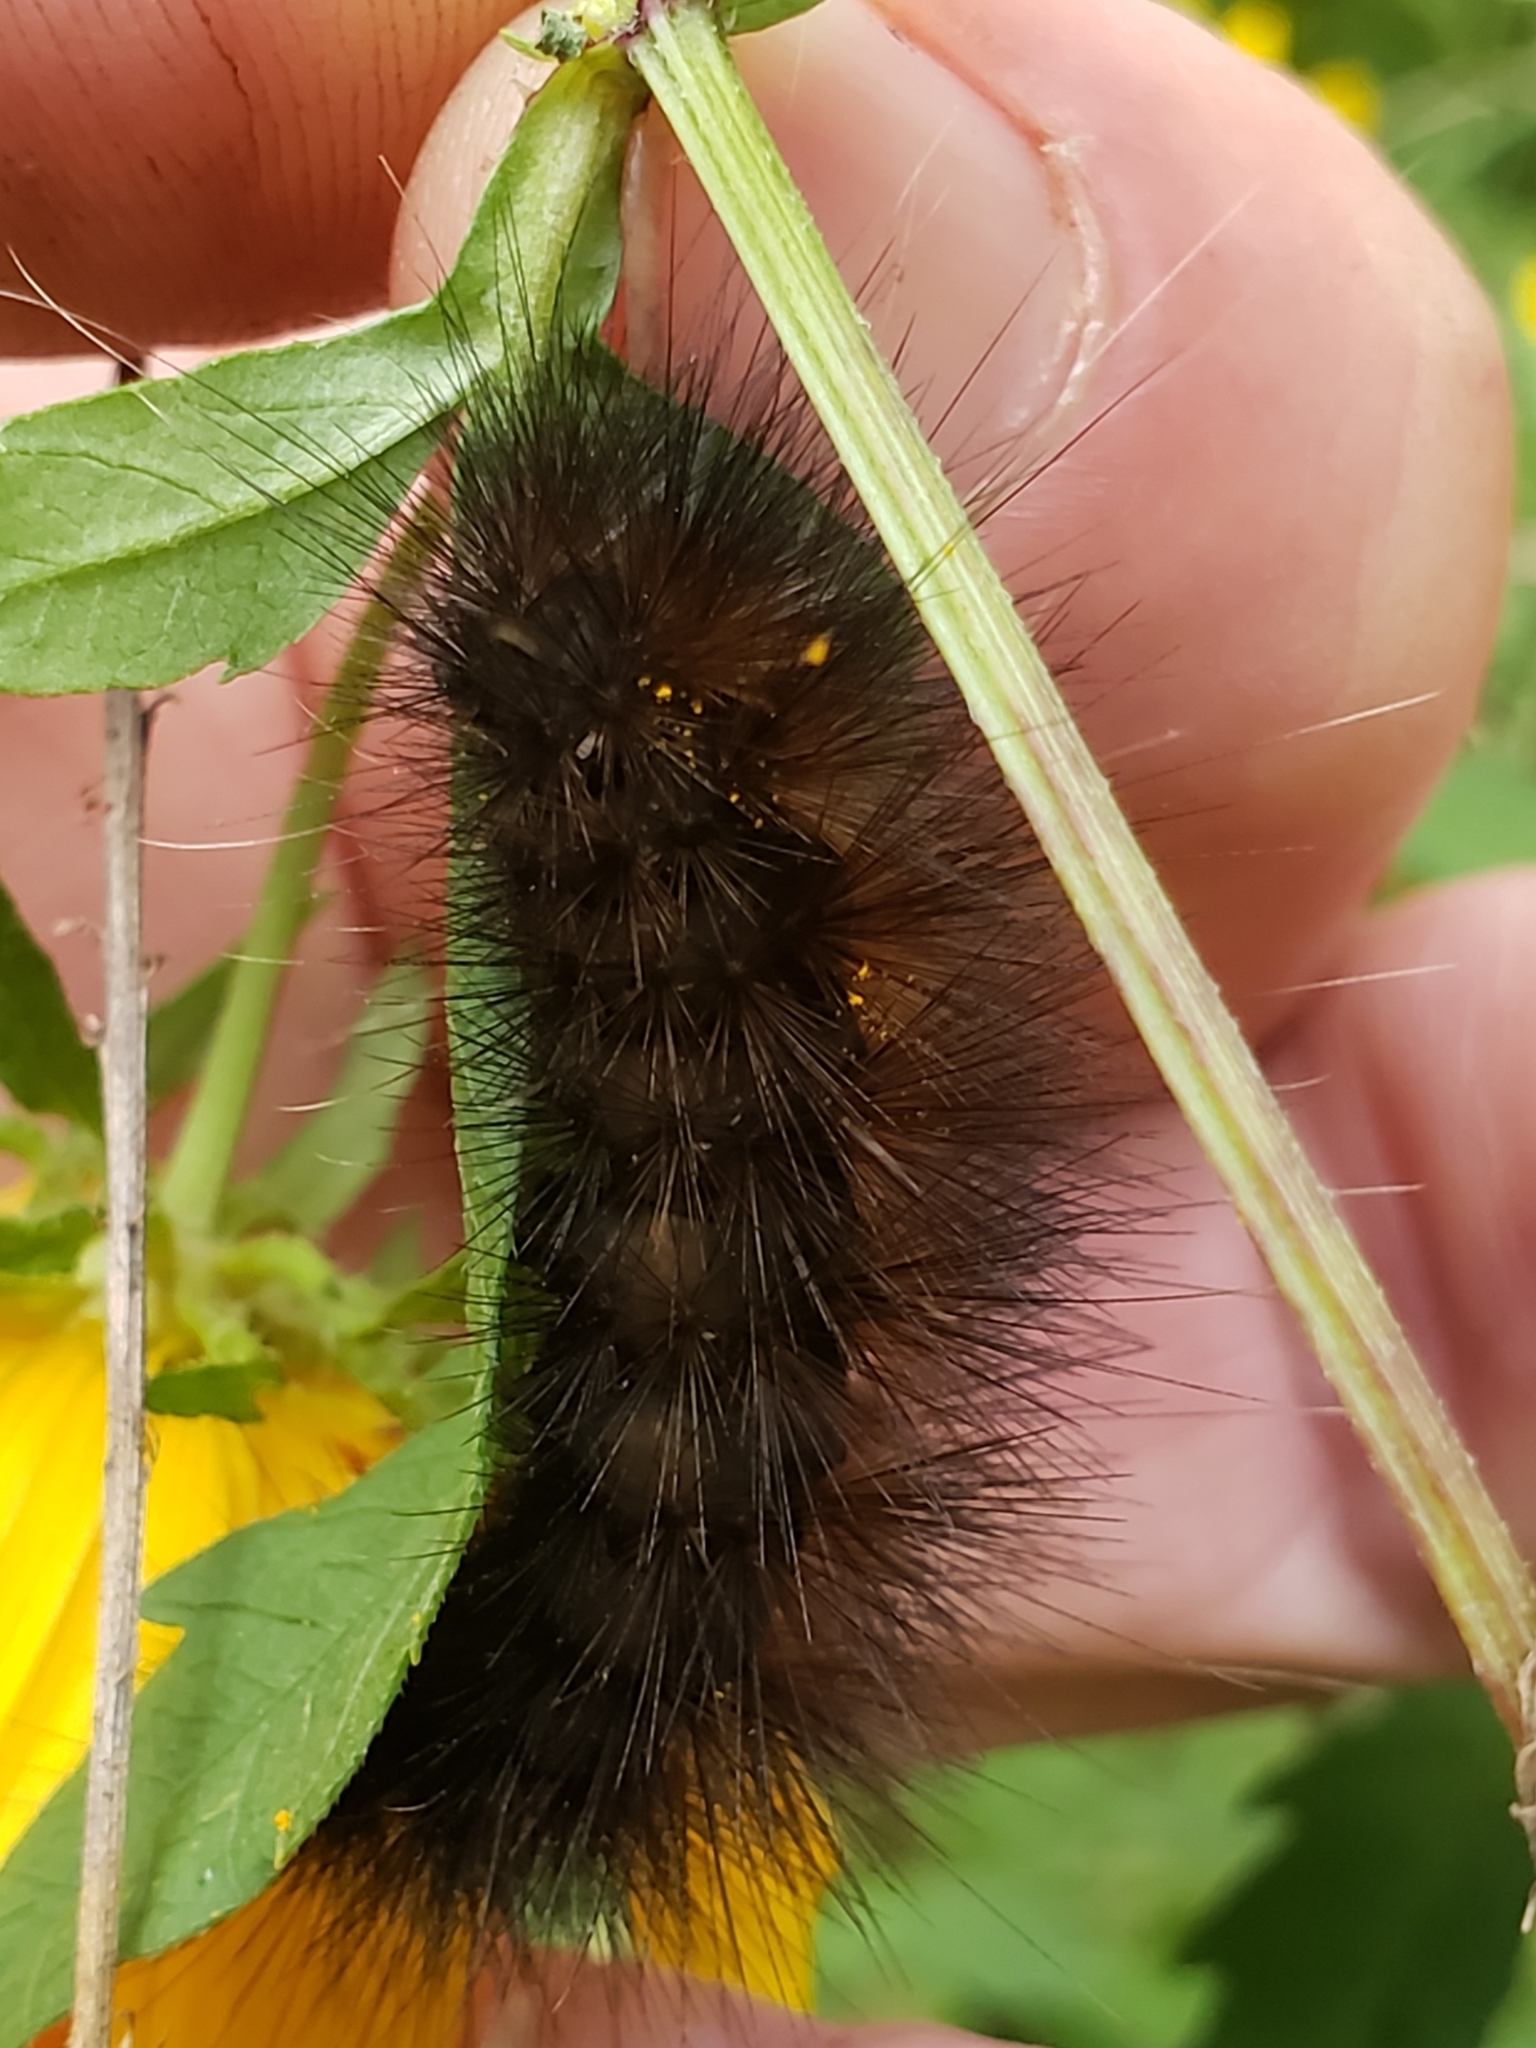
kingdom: Animalia
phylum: Arthropoda
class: Insecta
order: Lepidoptera
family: Erebidae
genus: Spilosoma
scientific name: Spilosoma virginica
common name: Virginia tiger moth
